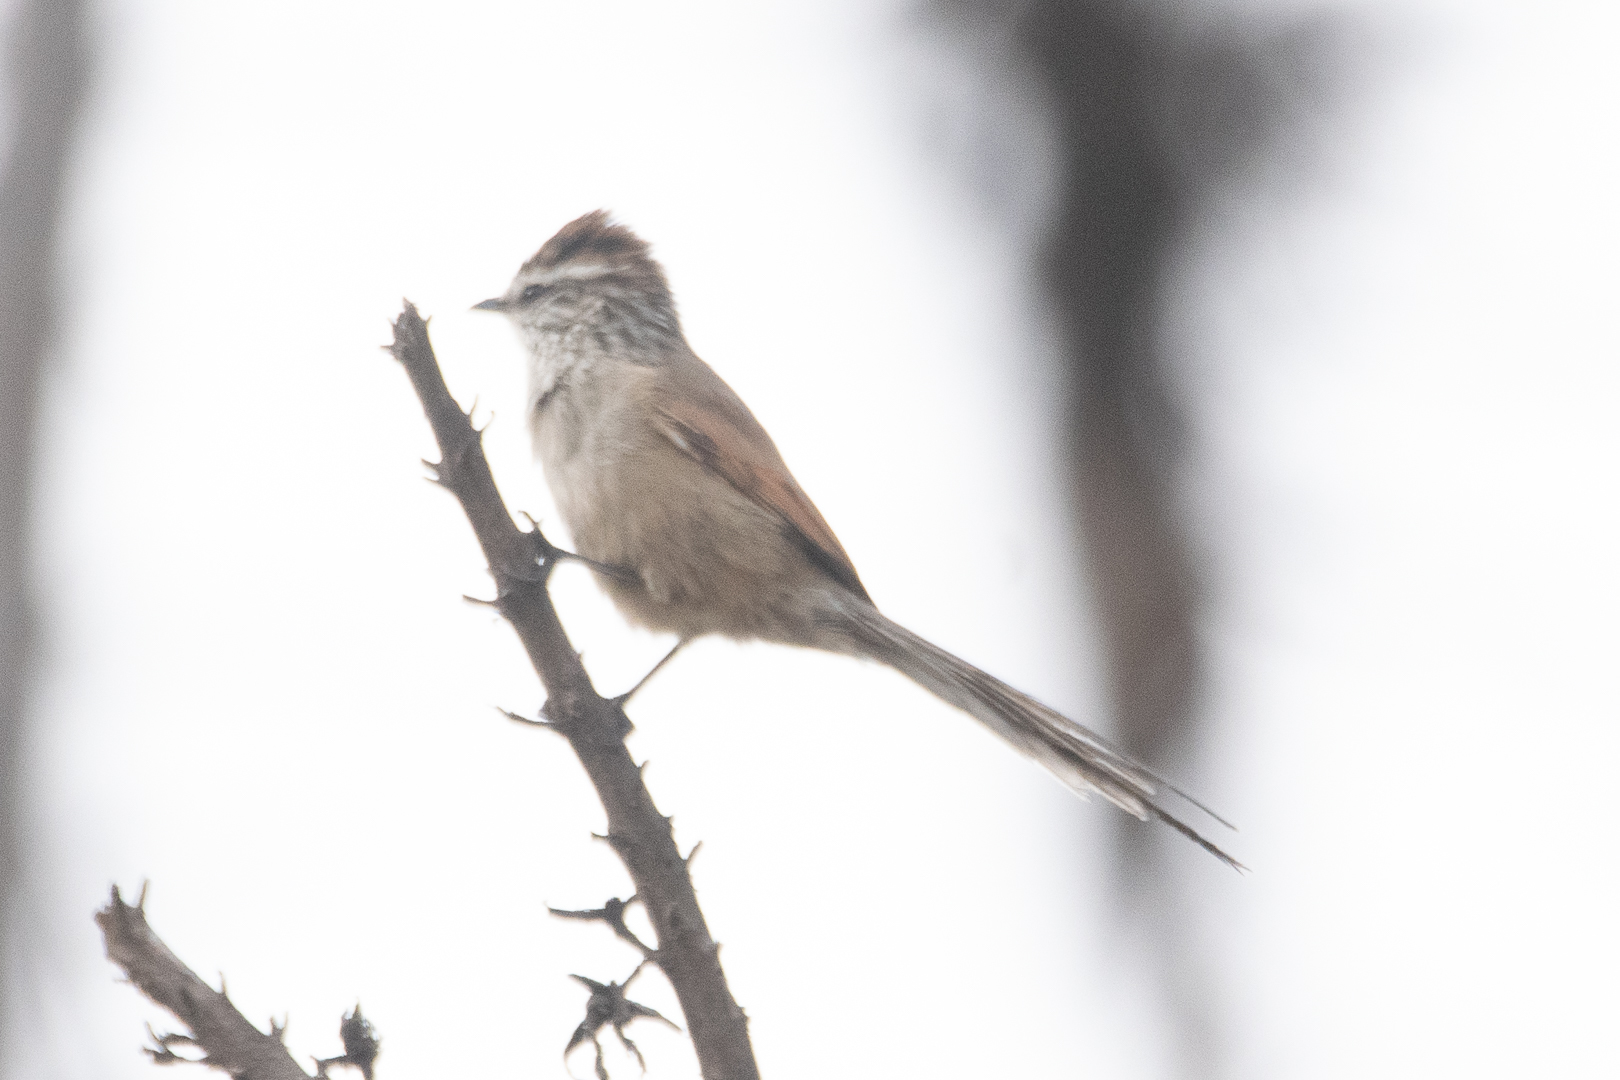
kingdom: Animalia
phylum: Chordata
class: Aves
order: Passeriformes
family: Furnariidae
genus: Leptasthenura
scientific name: Leptasthenura aegithaloides
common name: Plain-mantled tit-spinetail
